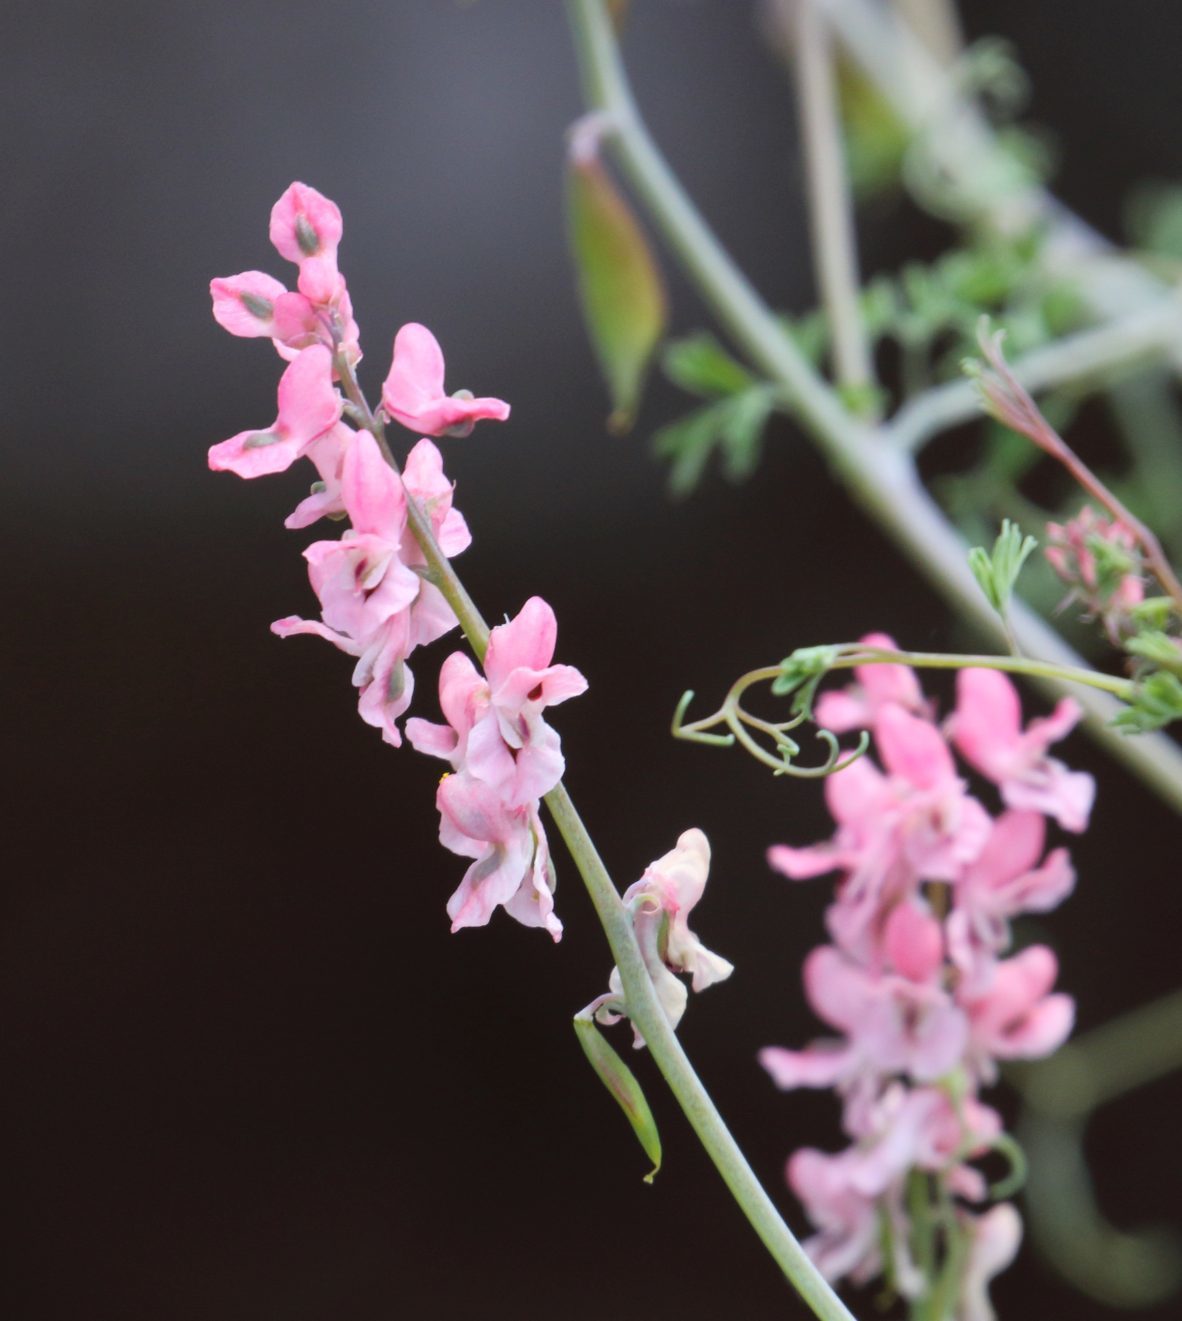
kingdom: Plantae
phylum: Tracheophyta
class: Magnoliopsida
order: Ranunculales
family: Papaveraceae
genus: Cysticapnos
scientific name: Cysticapnos pruinosa
